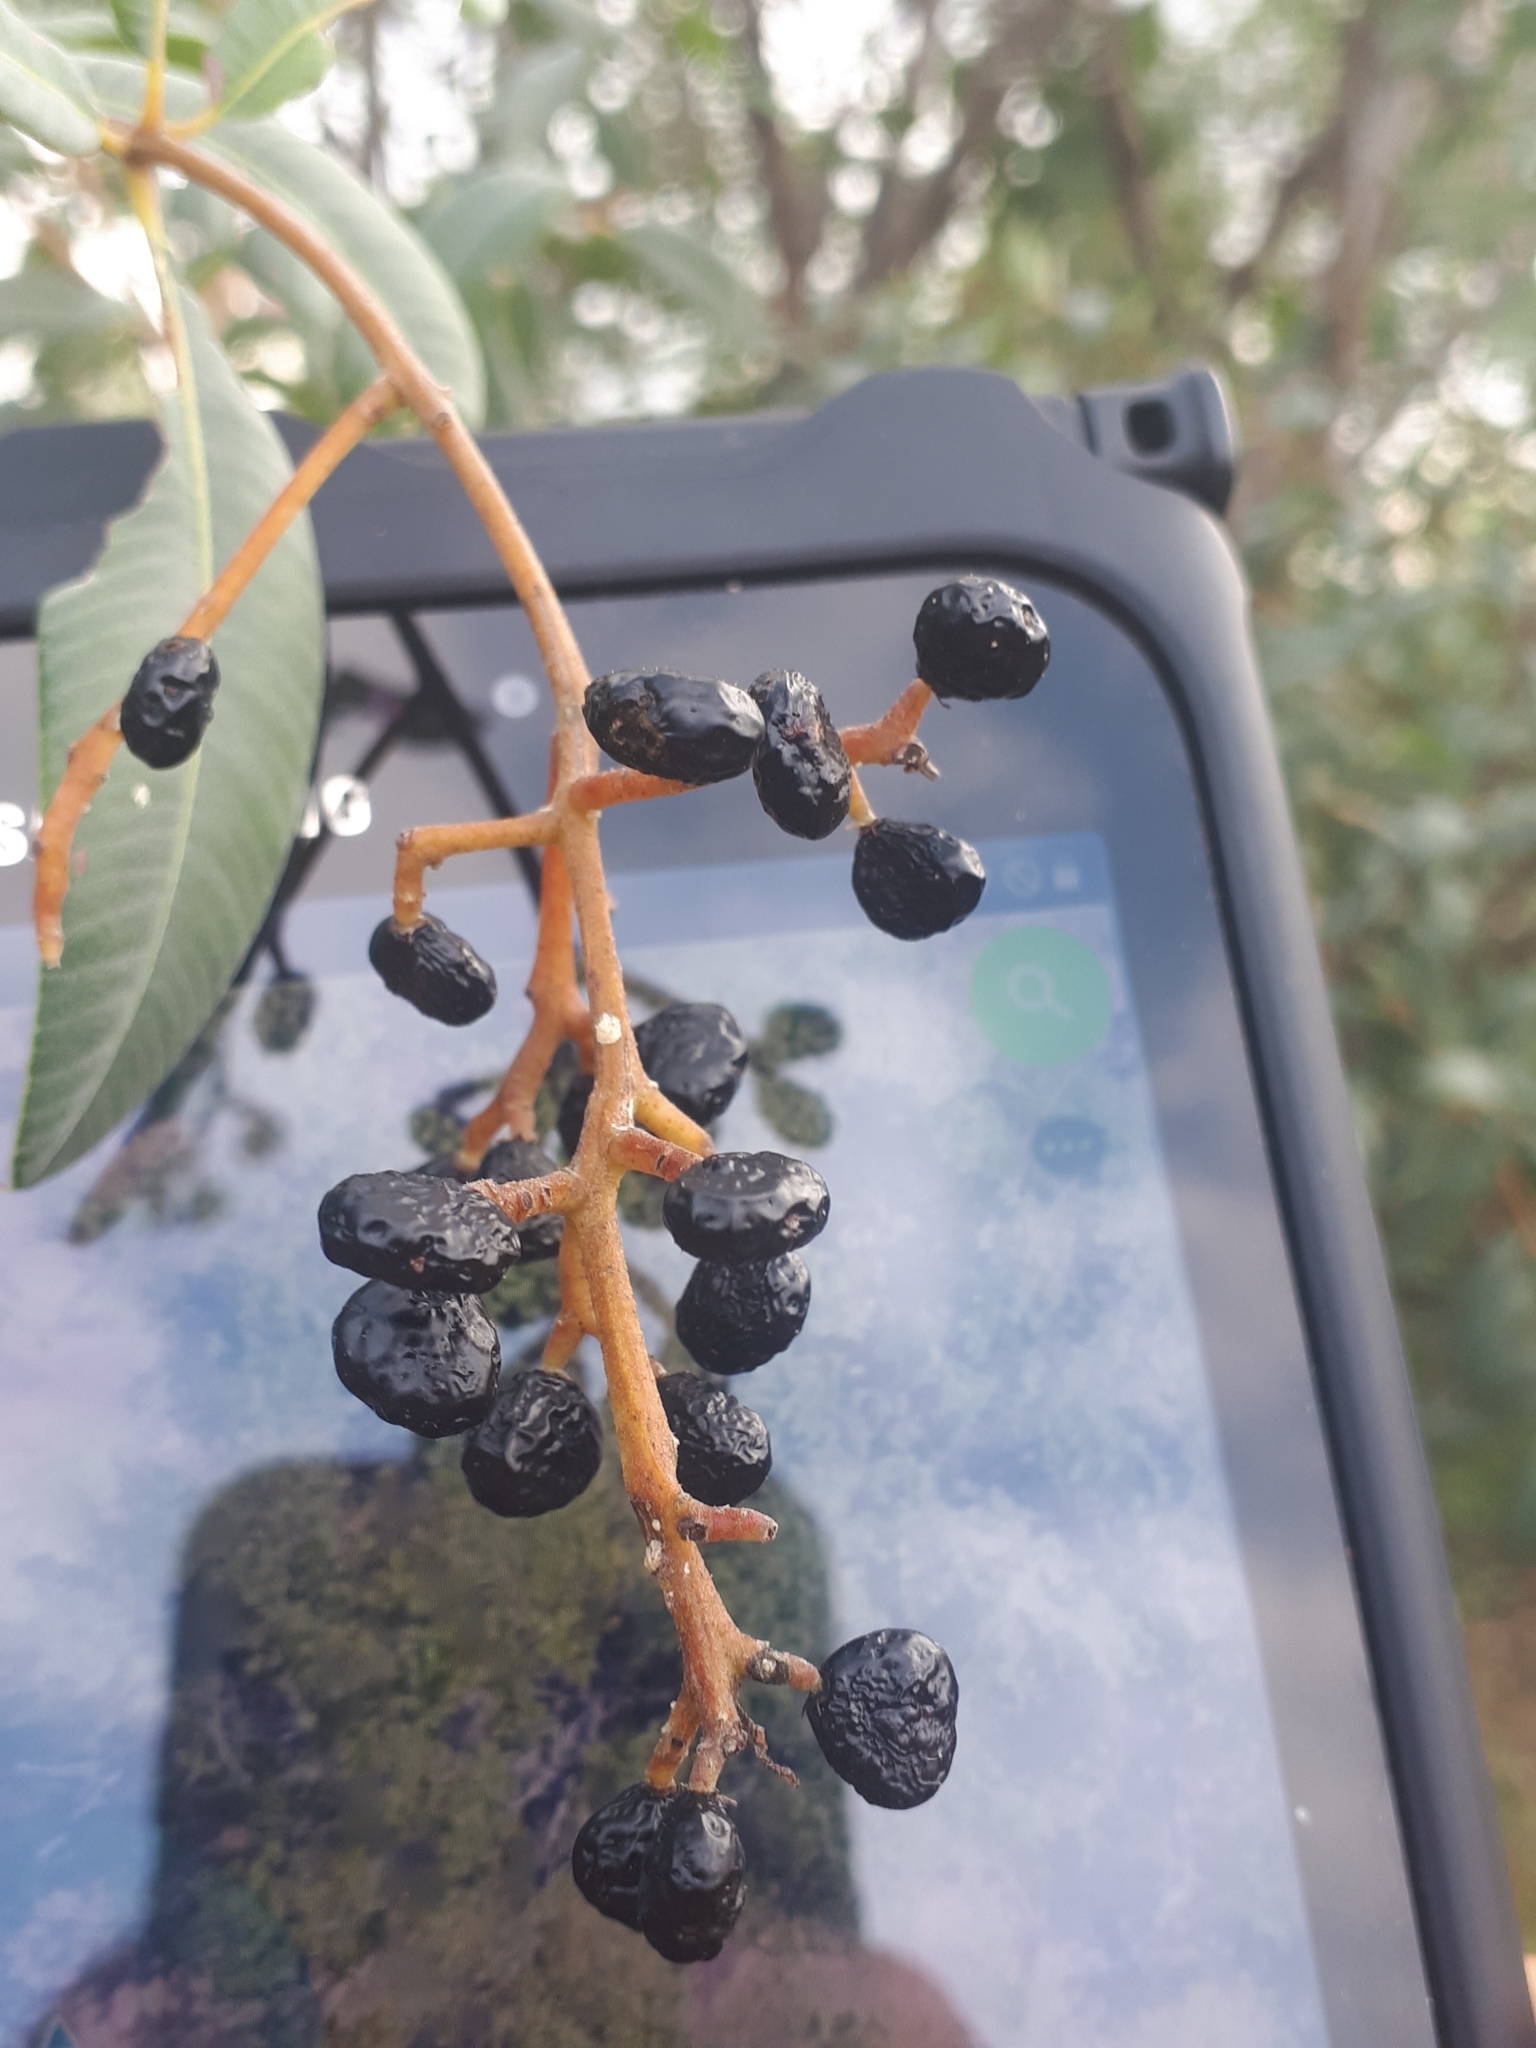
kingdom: Plantae
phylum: Tracheophyta
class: Magnoliopsida
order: Sapindales
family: Anacardiaceae
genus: Ozoroa
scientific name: Ozoroa paniculosa
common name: Bushveld ozoroa
